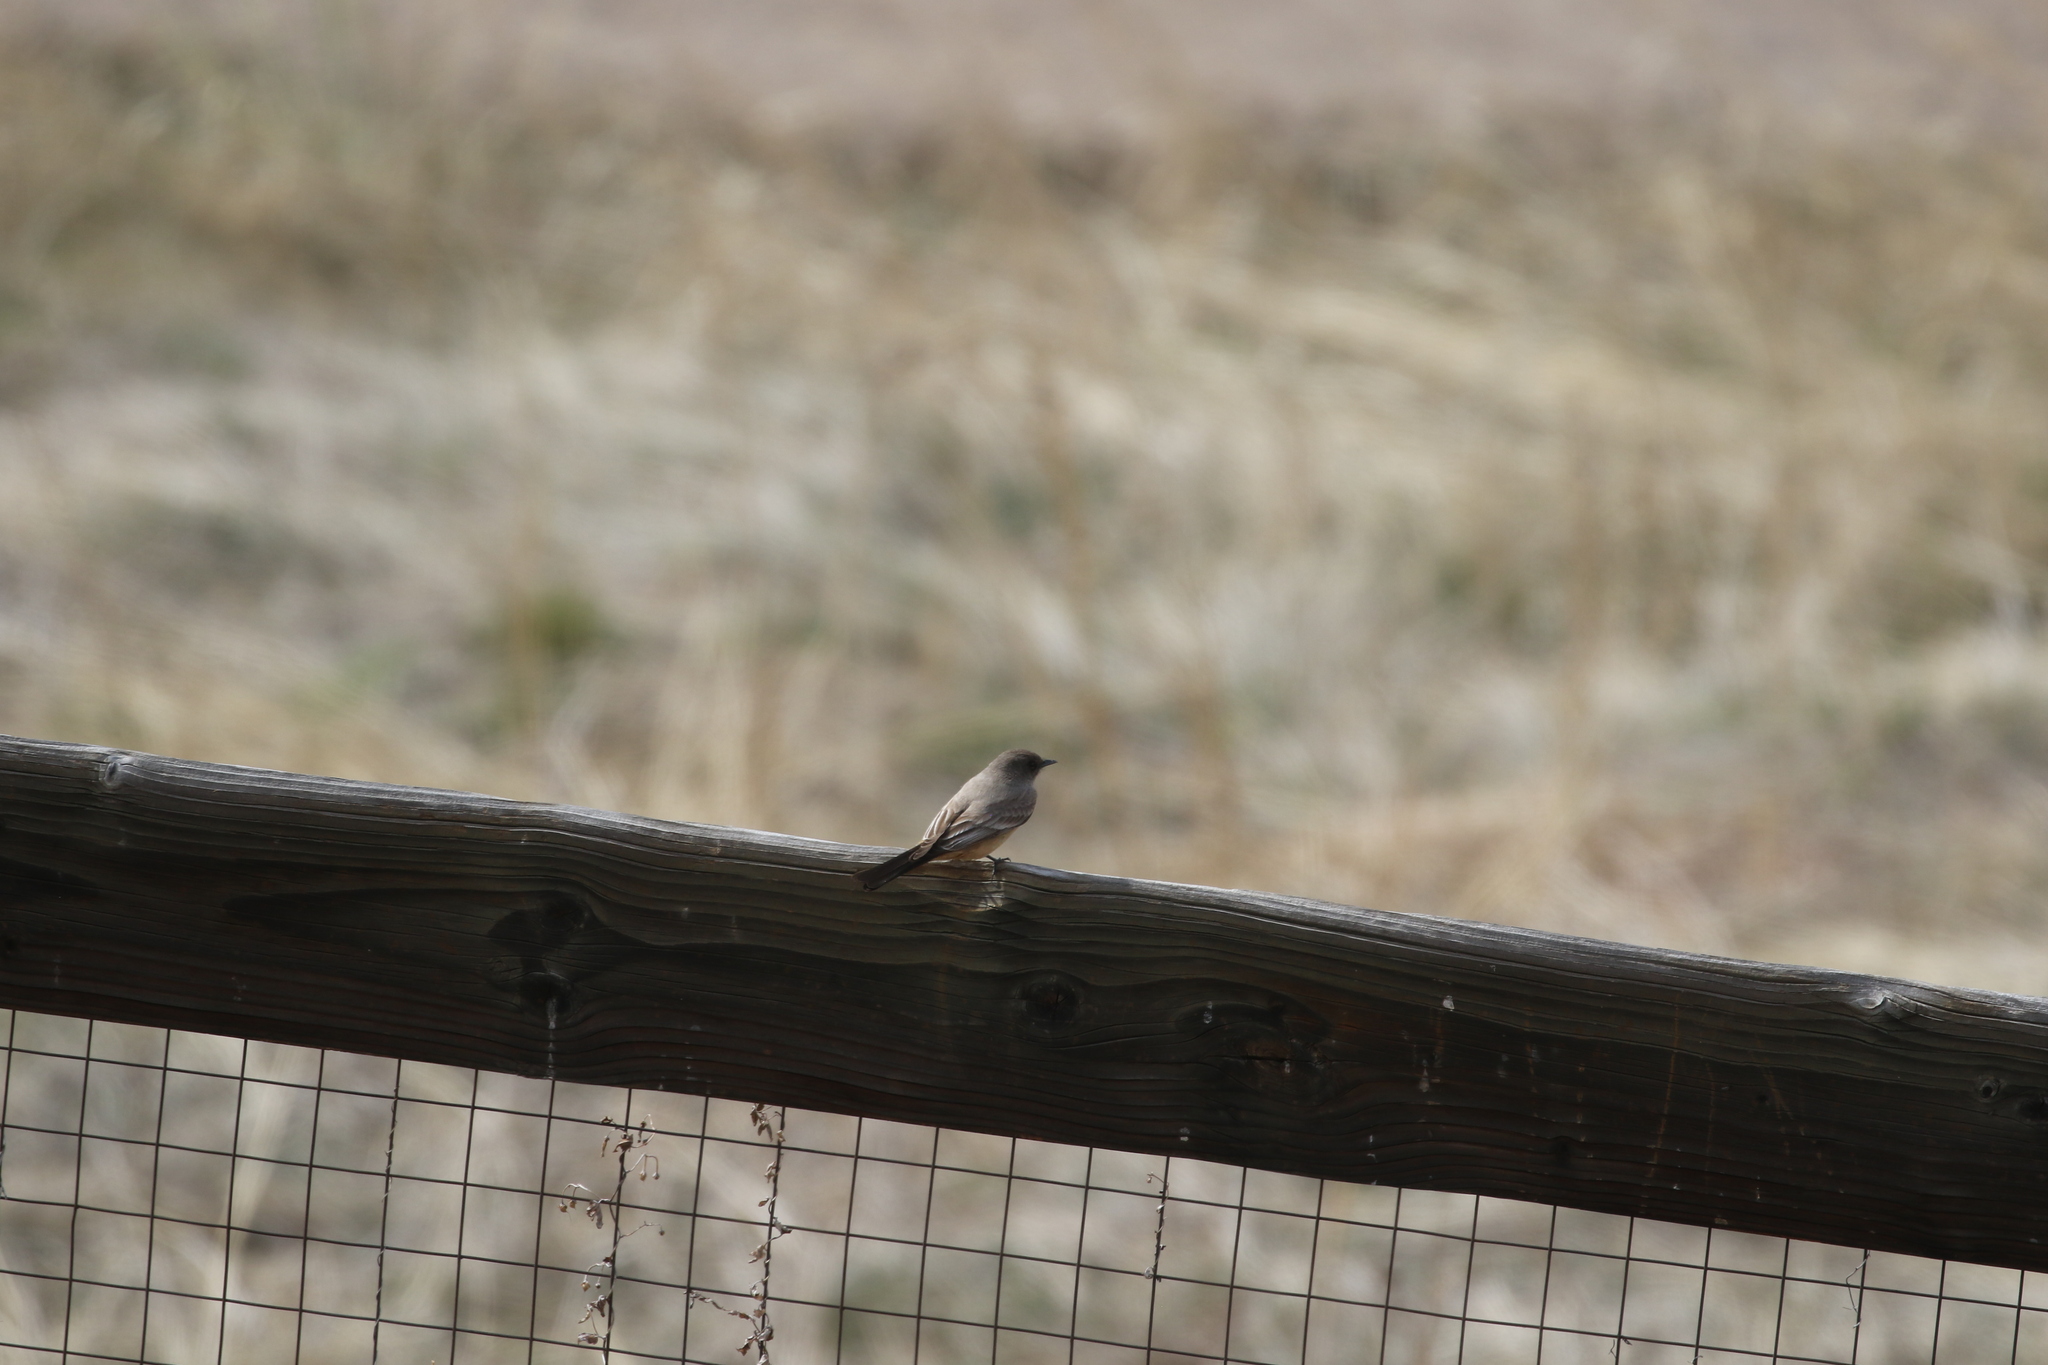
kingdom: Animalia
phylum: Chordata
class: Aves
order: Passeriformes
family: Tyrannidae
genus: Sayornis
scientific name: Sayornis saya
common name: Say's phoebe
